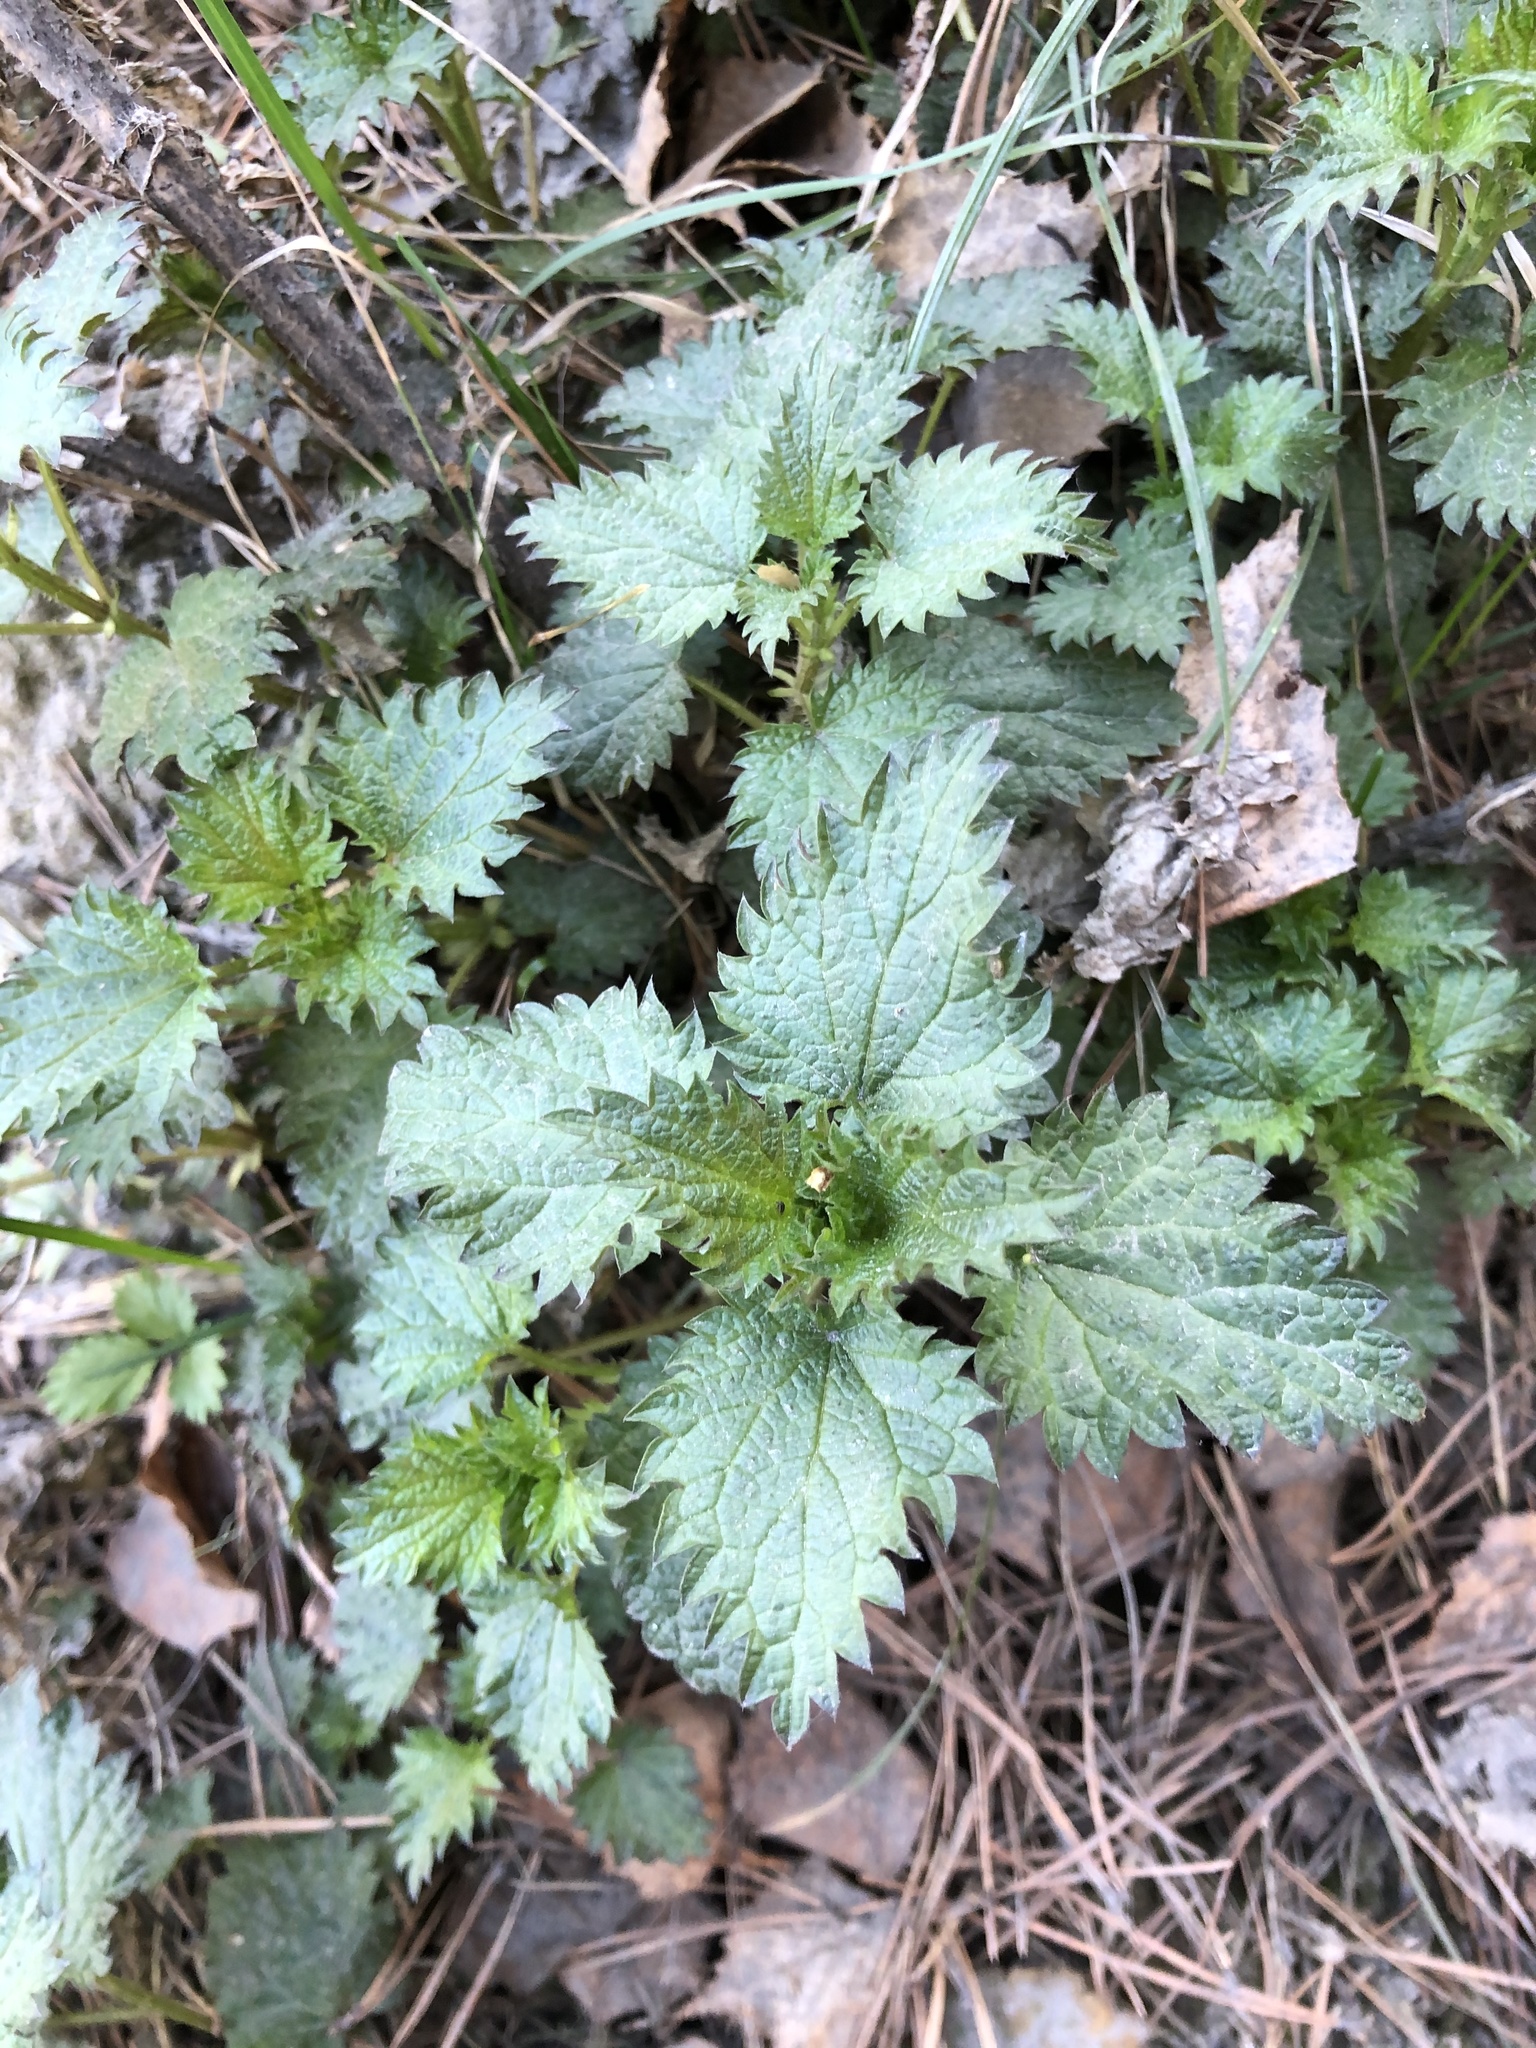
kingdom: Plantae
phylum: Tracheophyta
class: Magnoliopsida
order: Rosales
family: Urticaceae
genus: Urtica
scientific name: Urtica dioica
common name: Common nettle
